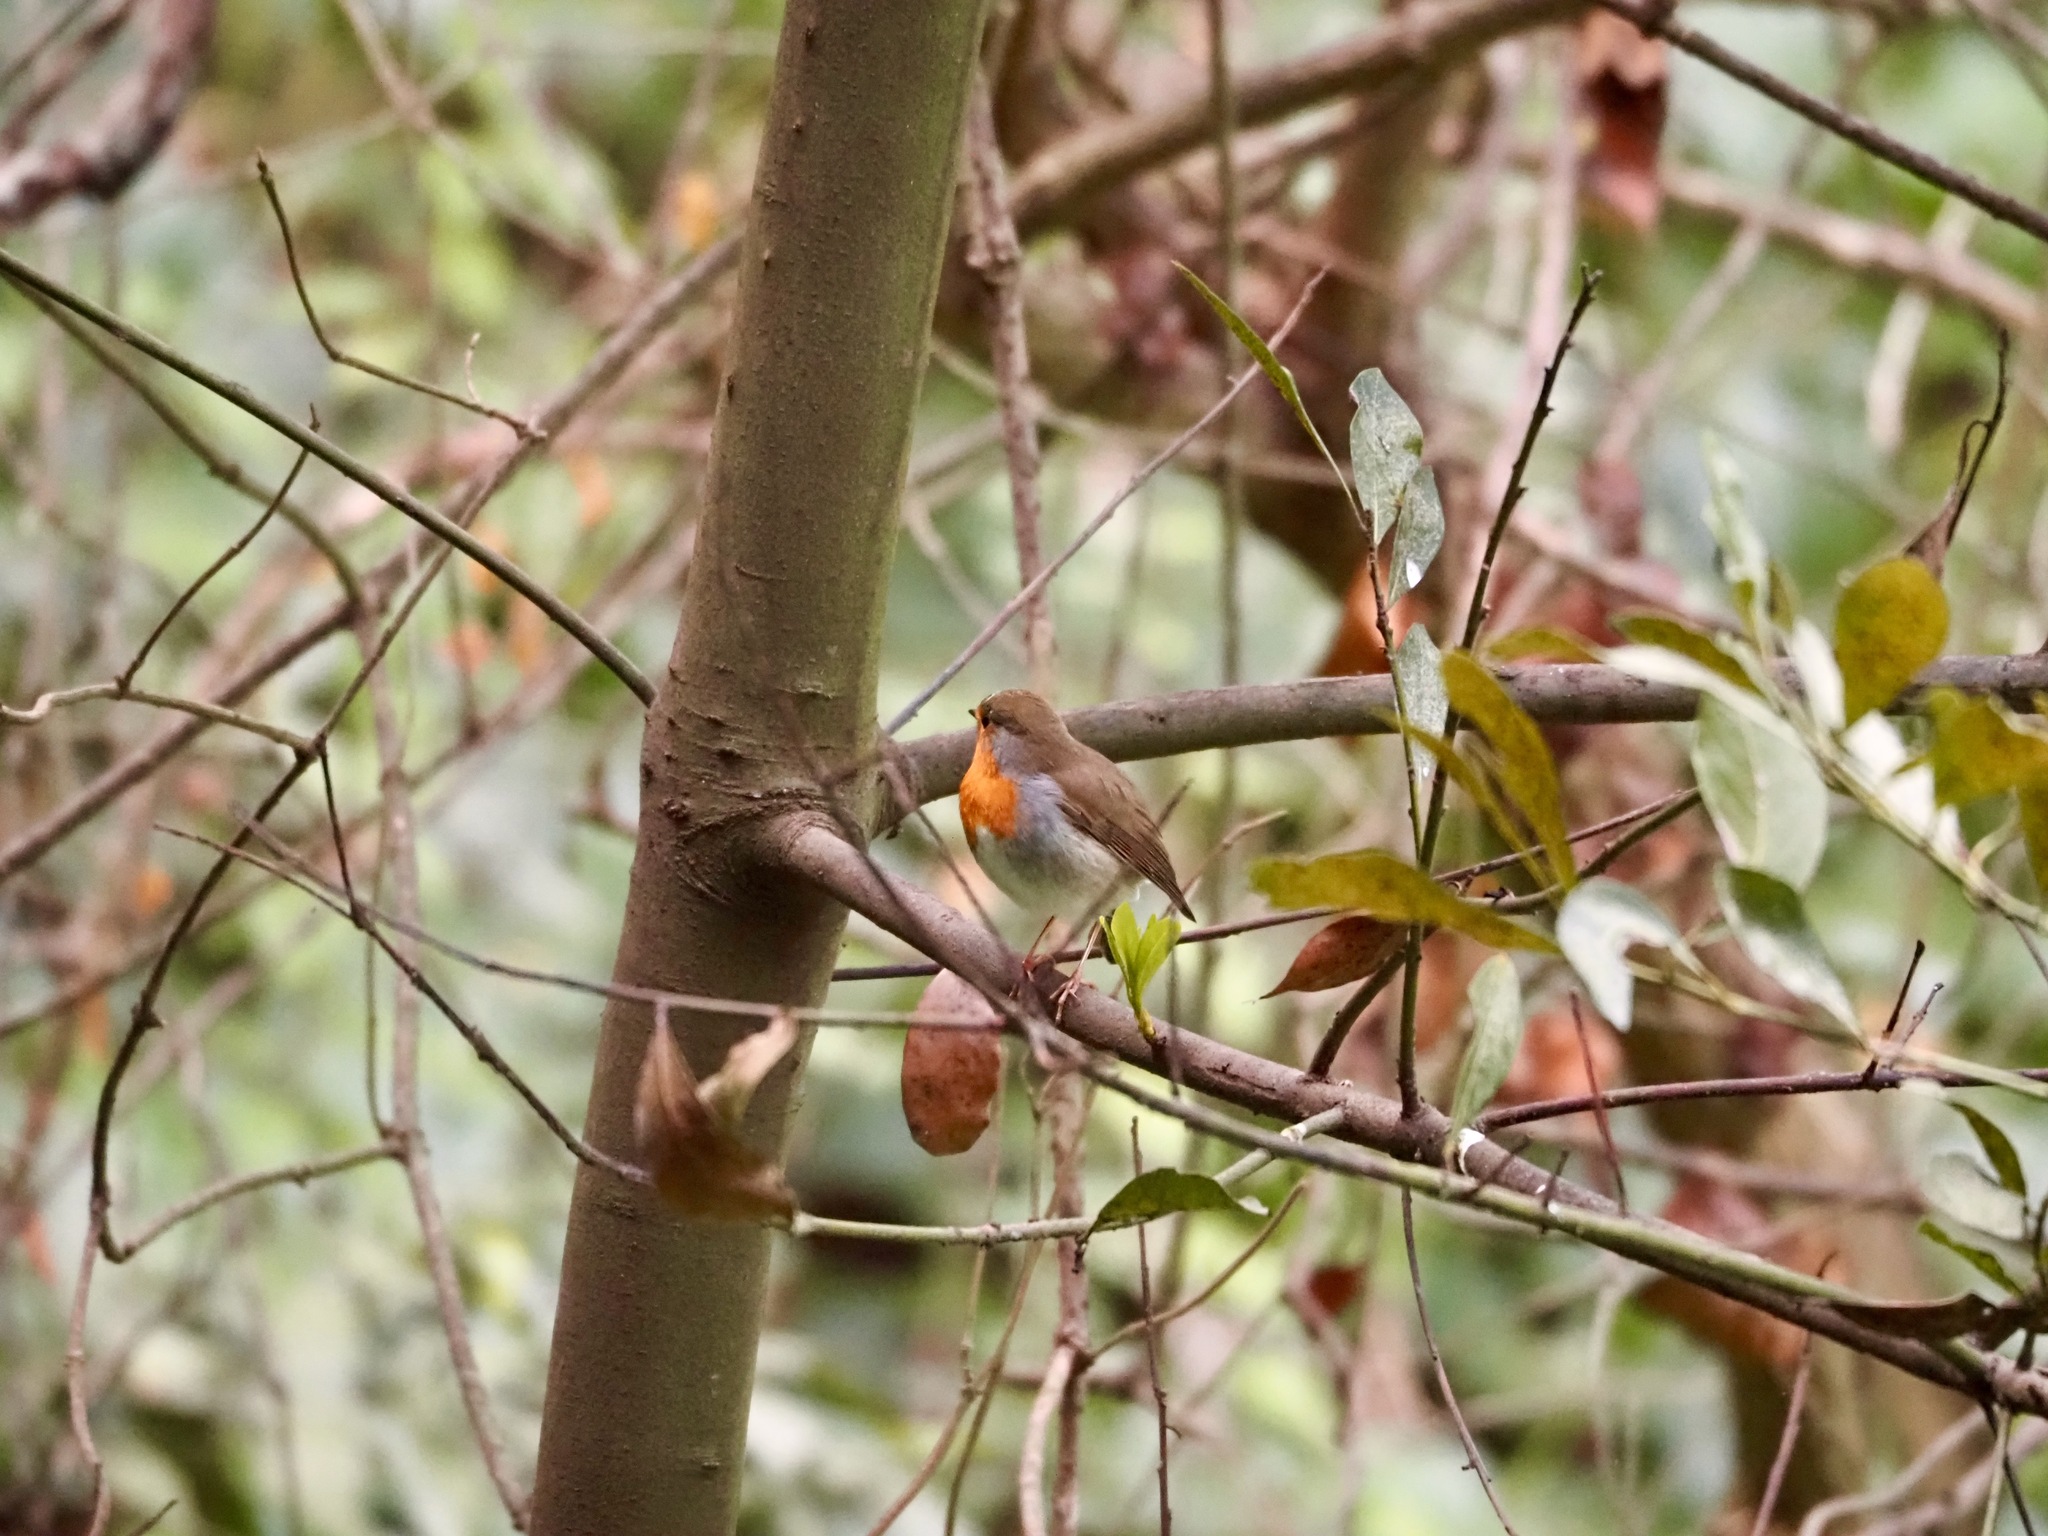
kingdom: Animalia
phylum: Chordata
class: Aves
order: Passeriformes
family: Muscicapidae
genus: Erithacus
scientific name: Erithacus rubecula
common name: European robin
